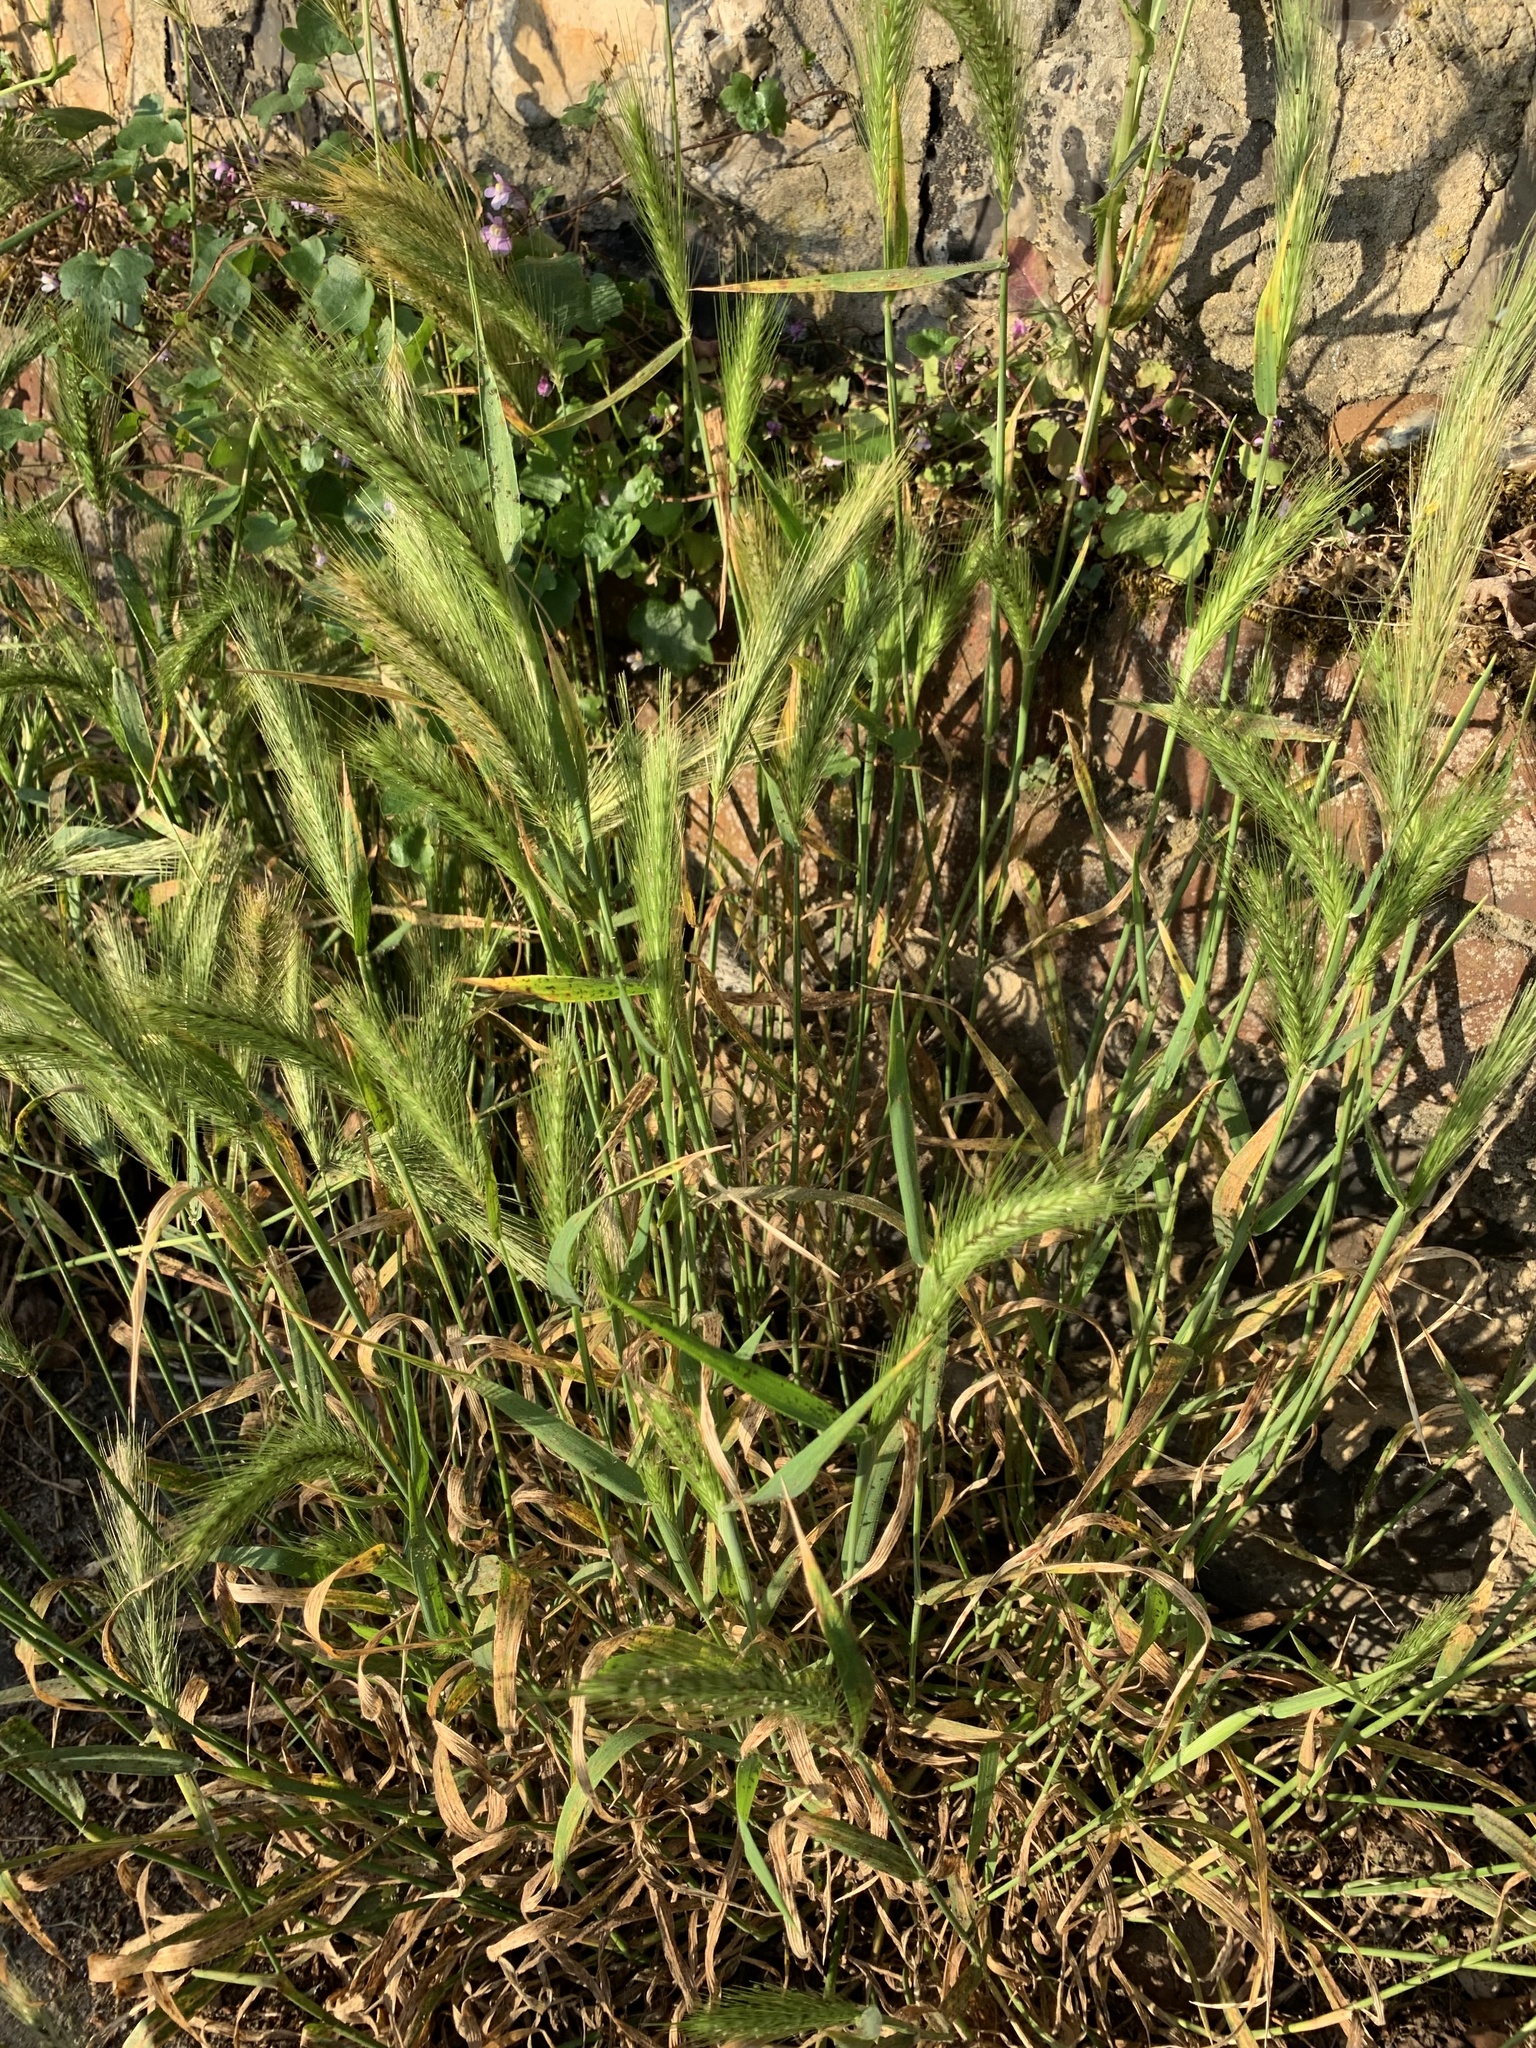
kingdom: Plantae
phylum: Tracheophyta
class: Liliopsida
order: Poales
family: Poaceae
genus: Hordeum
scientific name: Hordeum murinum
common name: Wall barley
